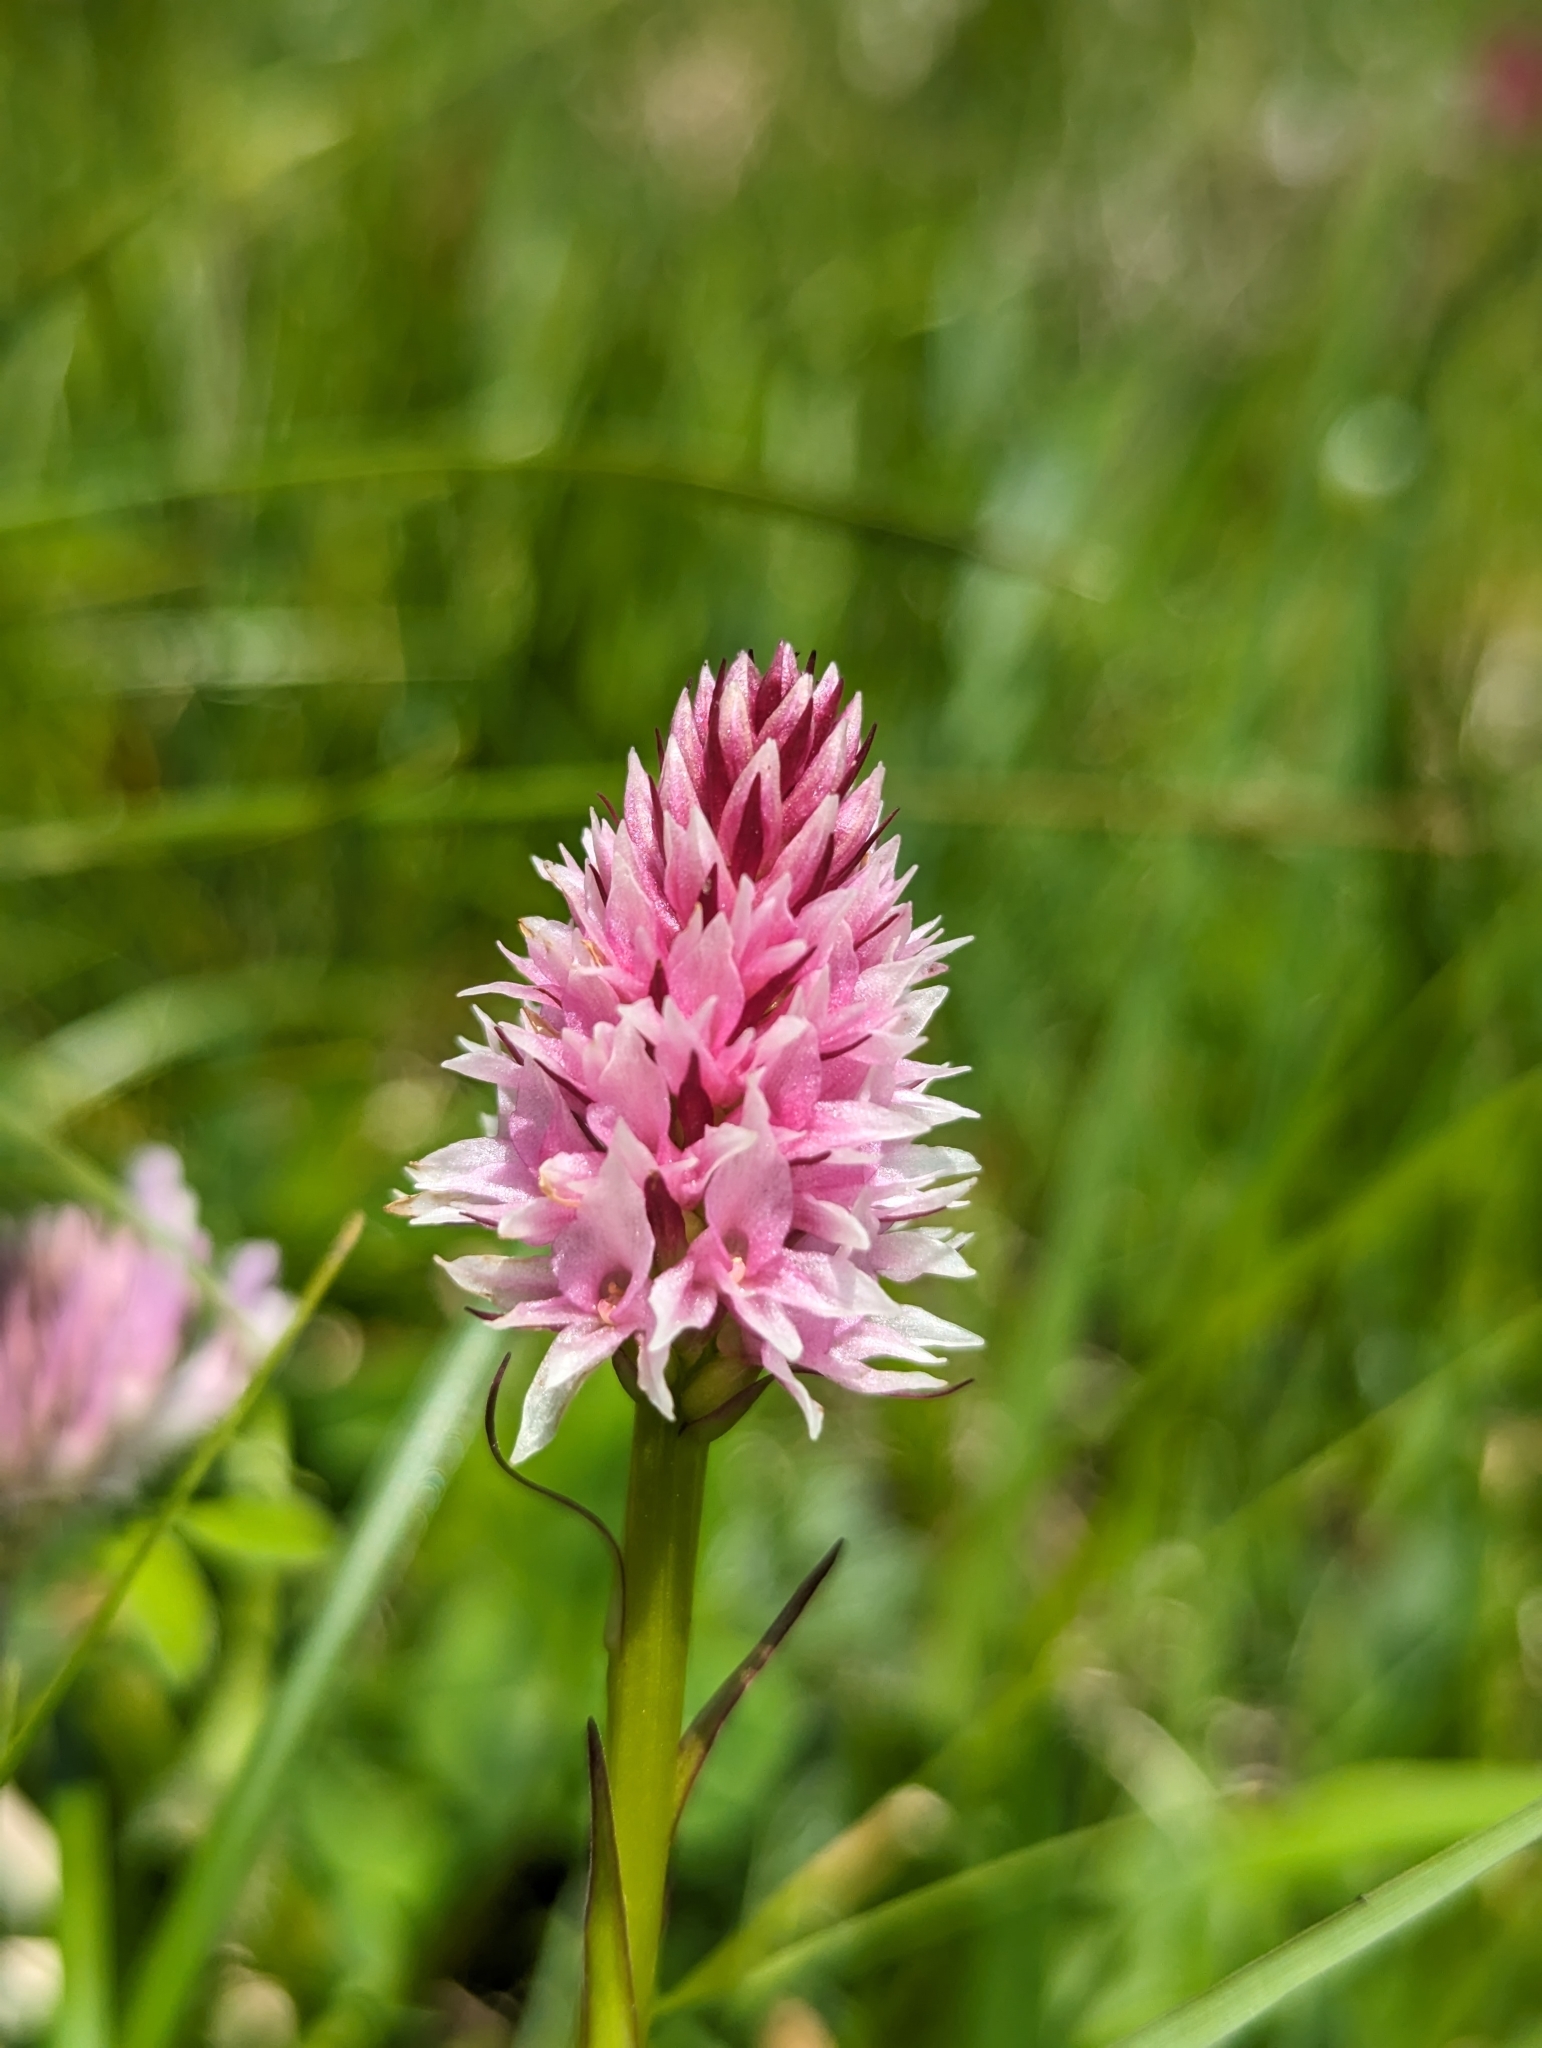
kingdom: Plantae
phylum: Tracheophyta
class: Liliopsida
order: Asparagales
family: Orchidaceae
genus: Gymnadenia
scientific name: Gymnadenia stiriaca
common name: Austrian gymnadenia
